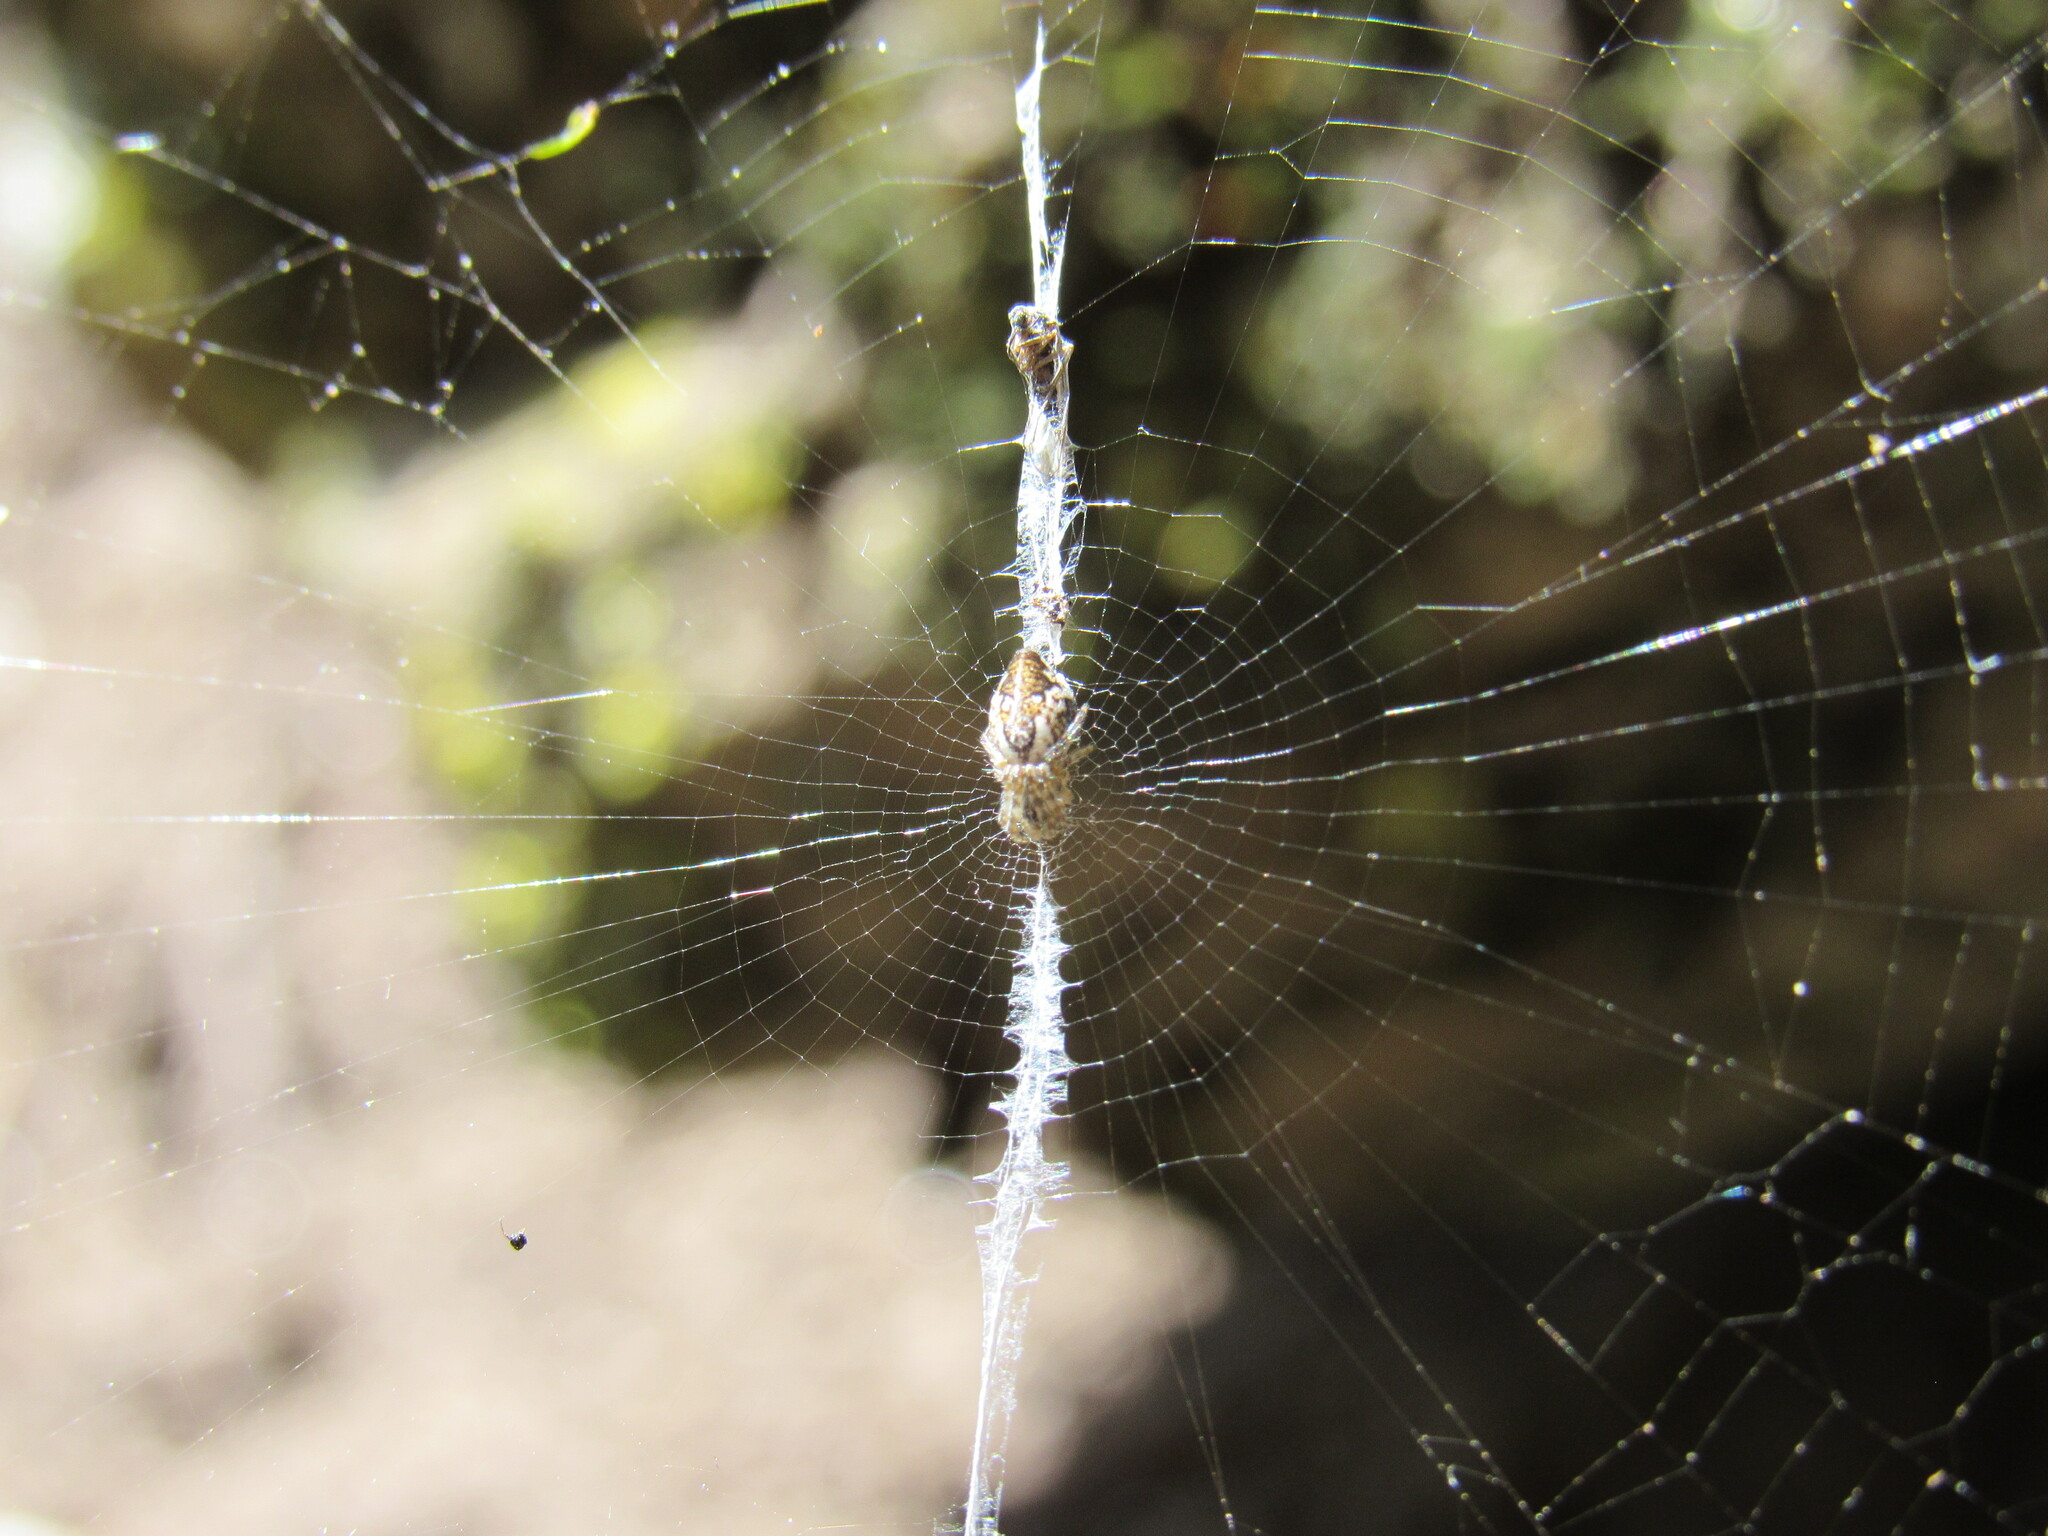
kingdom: Animalia
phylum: Arthropoda
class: Arachnida
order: Araneae
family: Araneidae
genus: Cyclosa
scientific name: Cyclosa conica
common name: Conical trashline orbweaver
